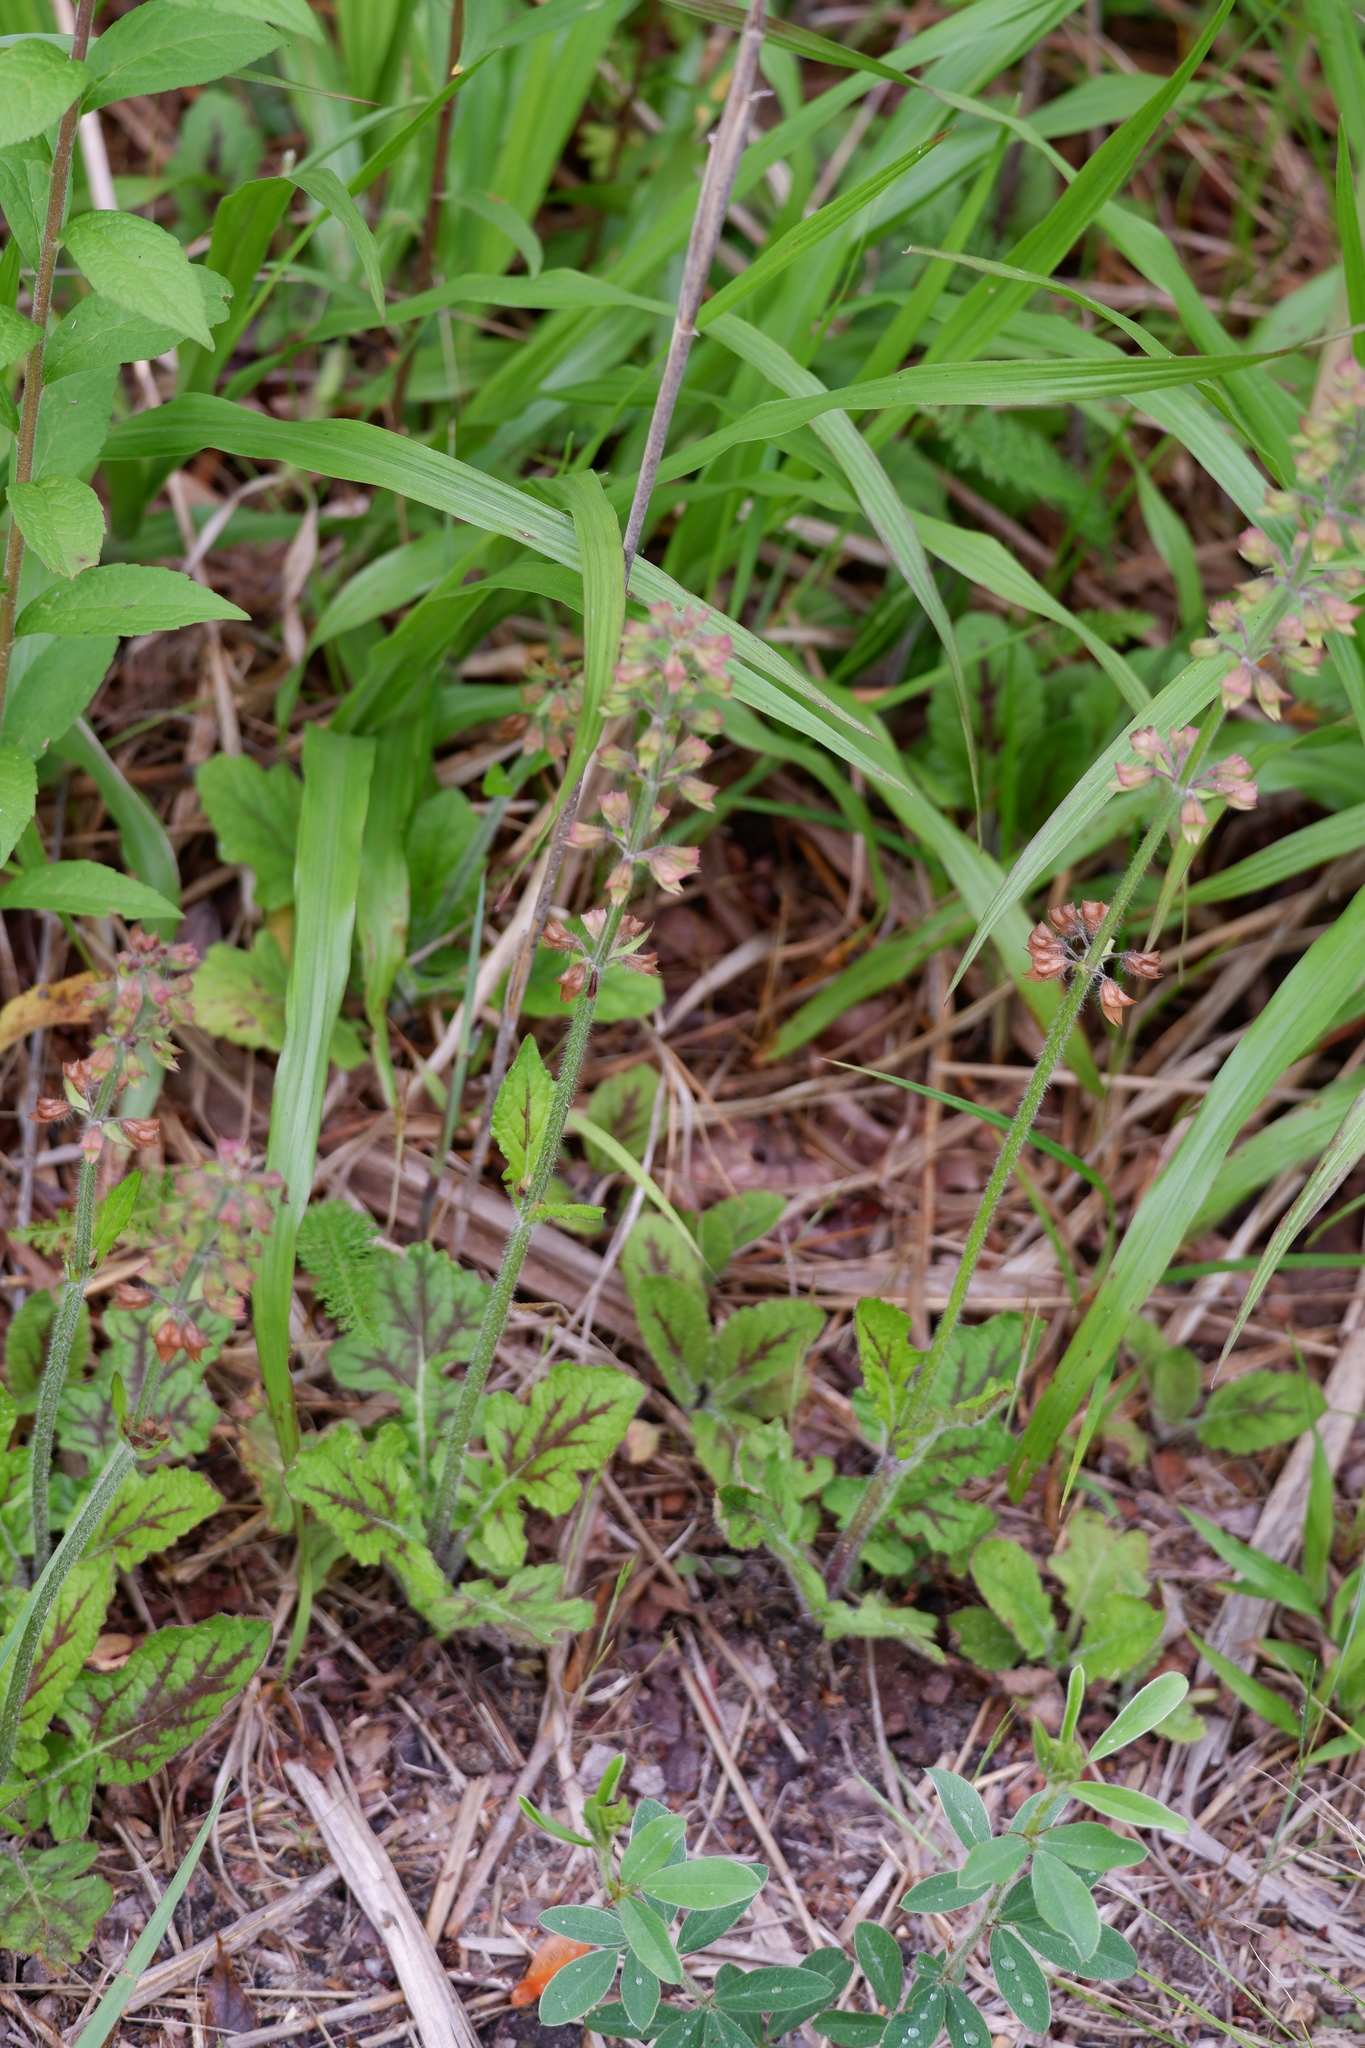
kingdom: Plantae
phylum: Tracheophyta
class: Magnoliopsida
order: Lamiales
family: Lamiaceae
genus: Salvia
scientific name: Salvia lyrata
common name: Cancerweed
